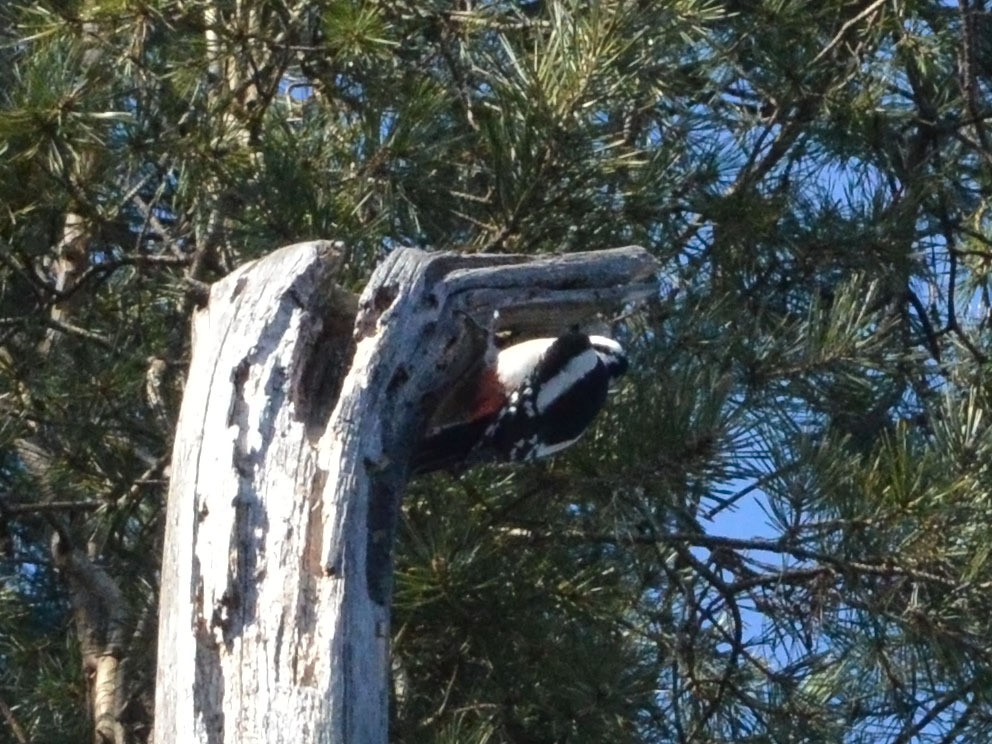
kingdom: Animalia
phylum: Chordata
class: Aves
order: Piciformes
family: Picidae
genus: Dendrocopos
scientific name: Dendrocopos major
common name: Great spotted woodpecker
